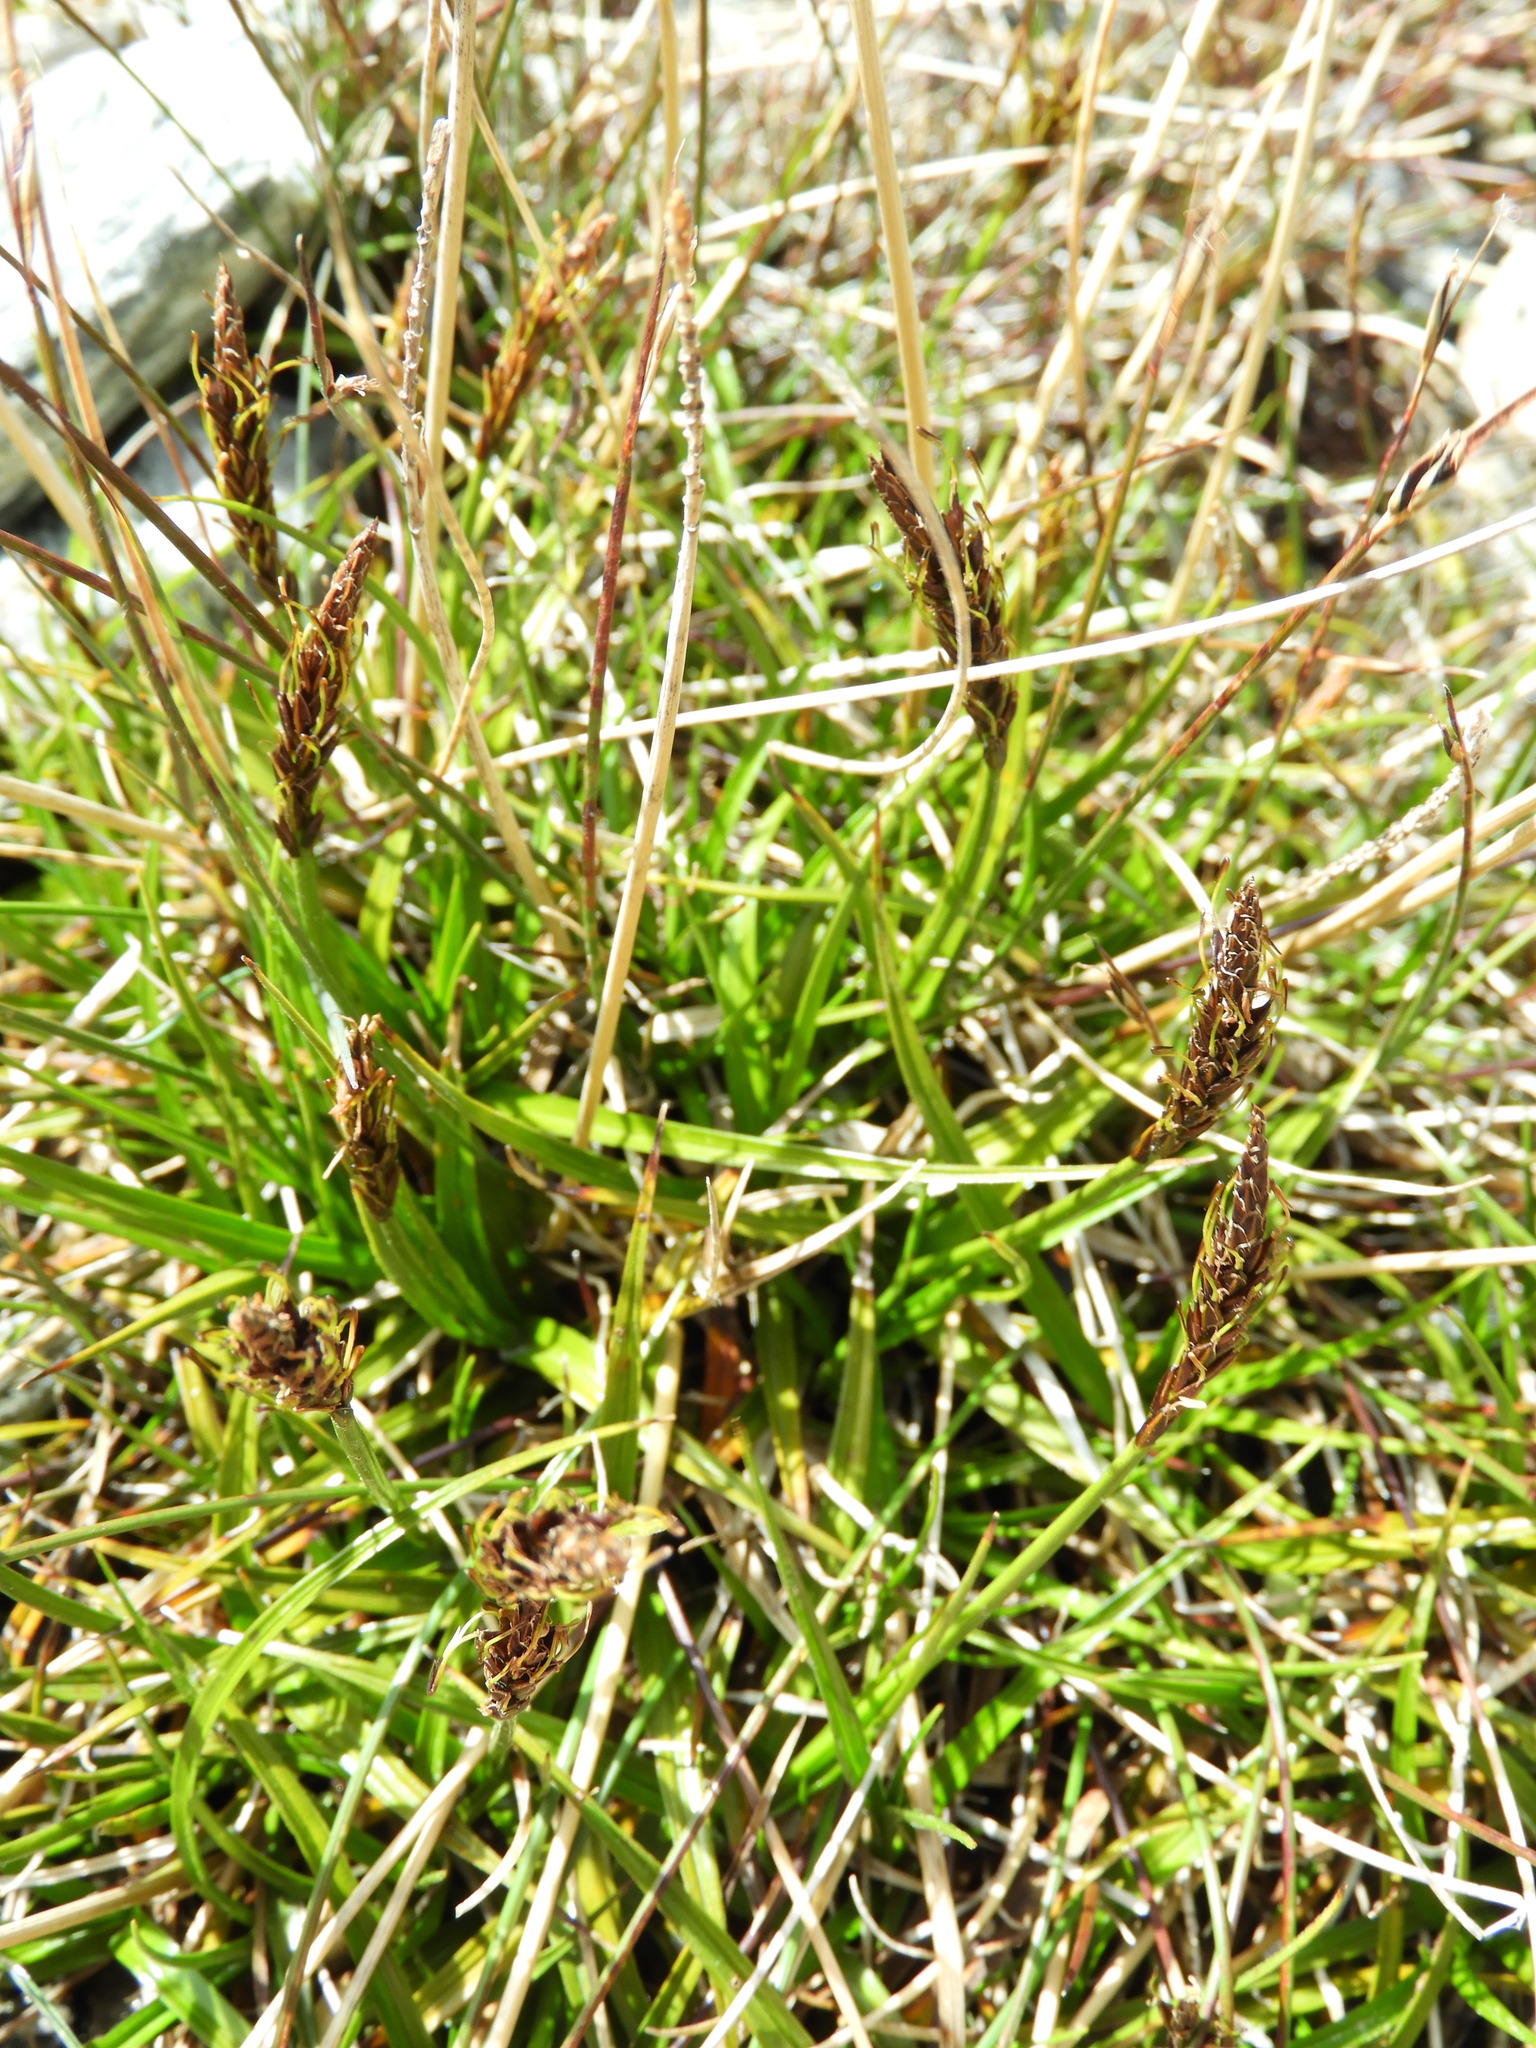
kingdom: Plantae
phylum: Tracheophyta
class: Liliopsida
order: Poales
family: Cyperaceae
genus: Carex
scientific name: Carex penalpina
